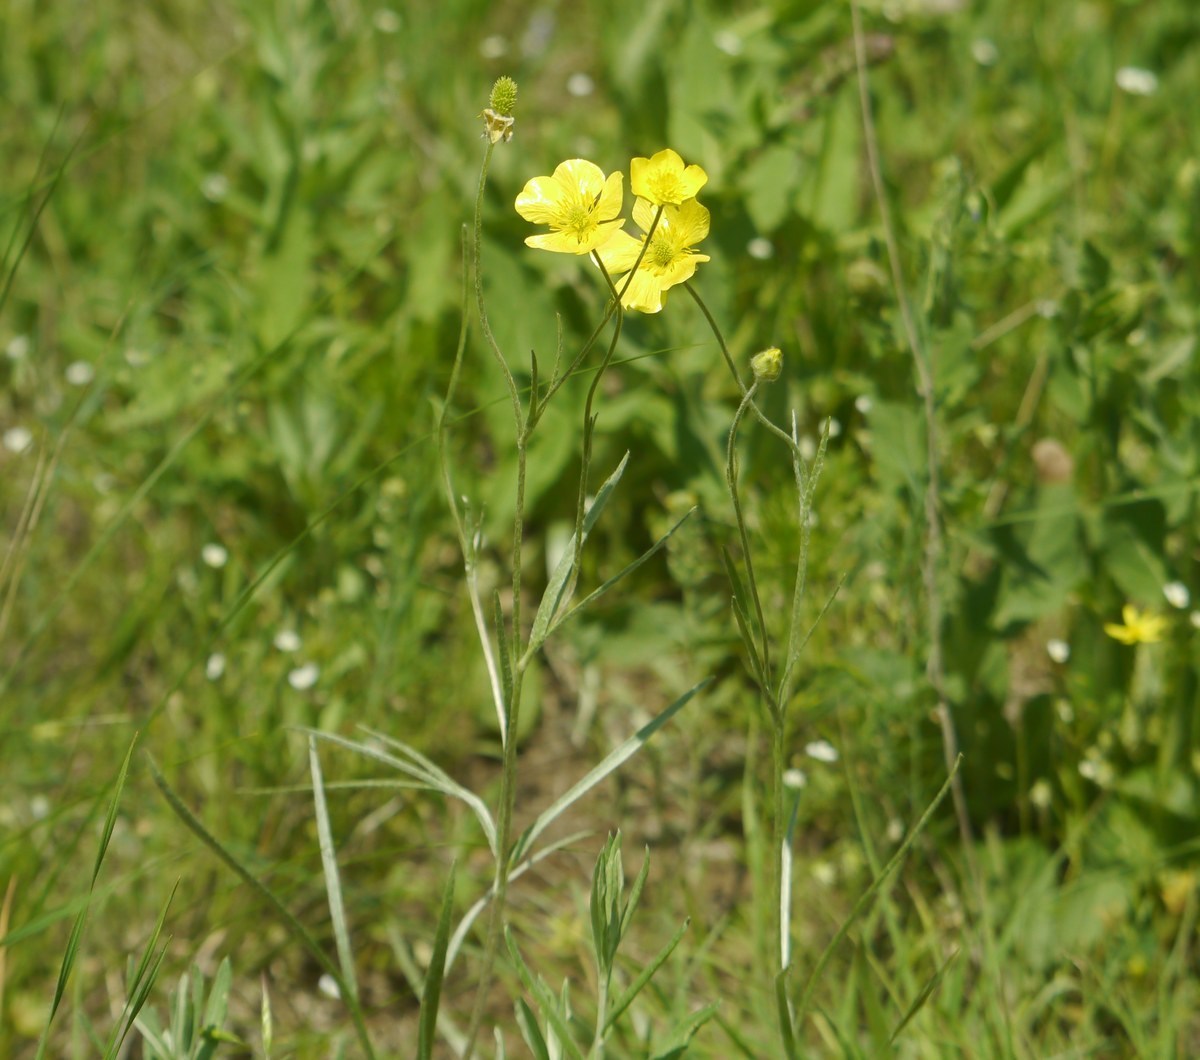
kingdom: Plantae
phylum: Tracheophyta
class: Magnoliopsida
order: Ranunculales
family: Ranunculaceae
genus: Ranunculus
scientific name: Ranunculus illyricus
